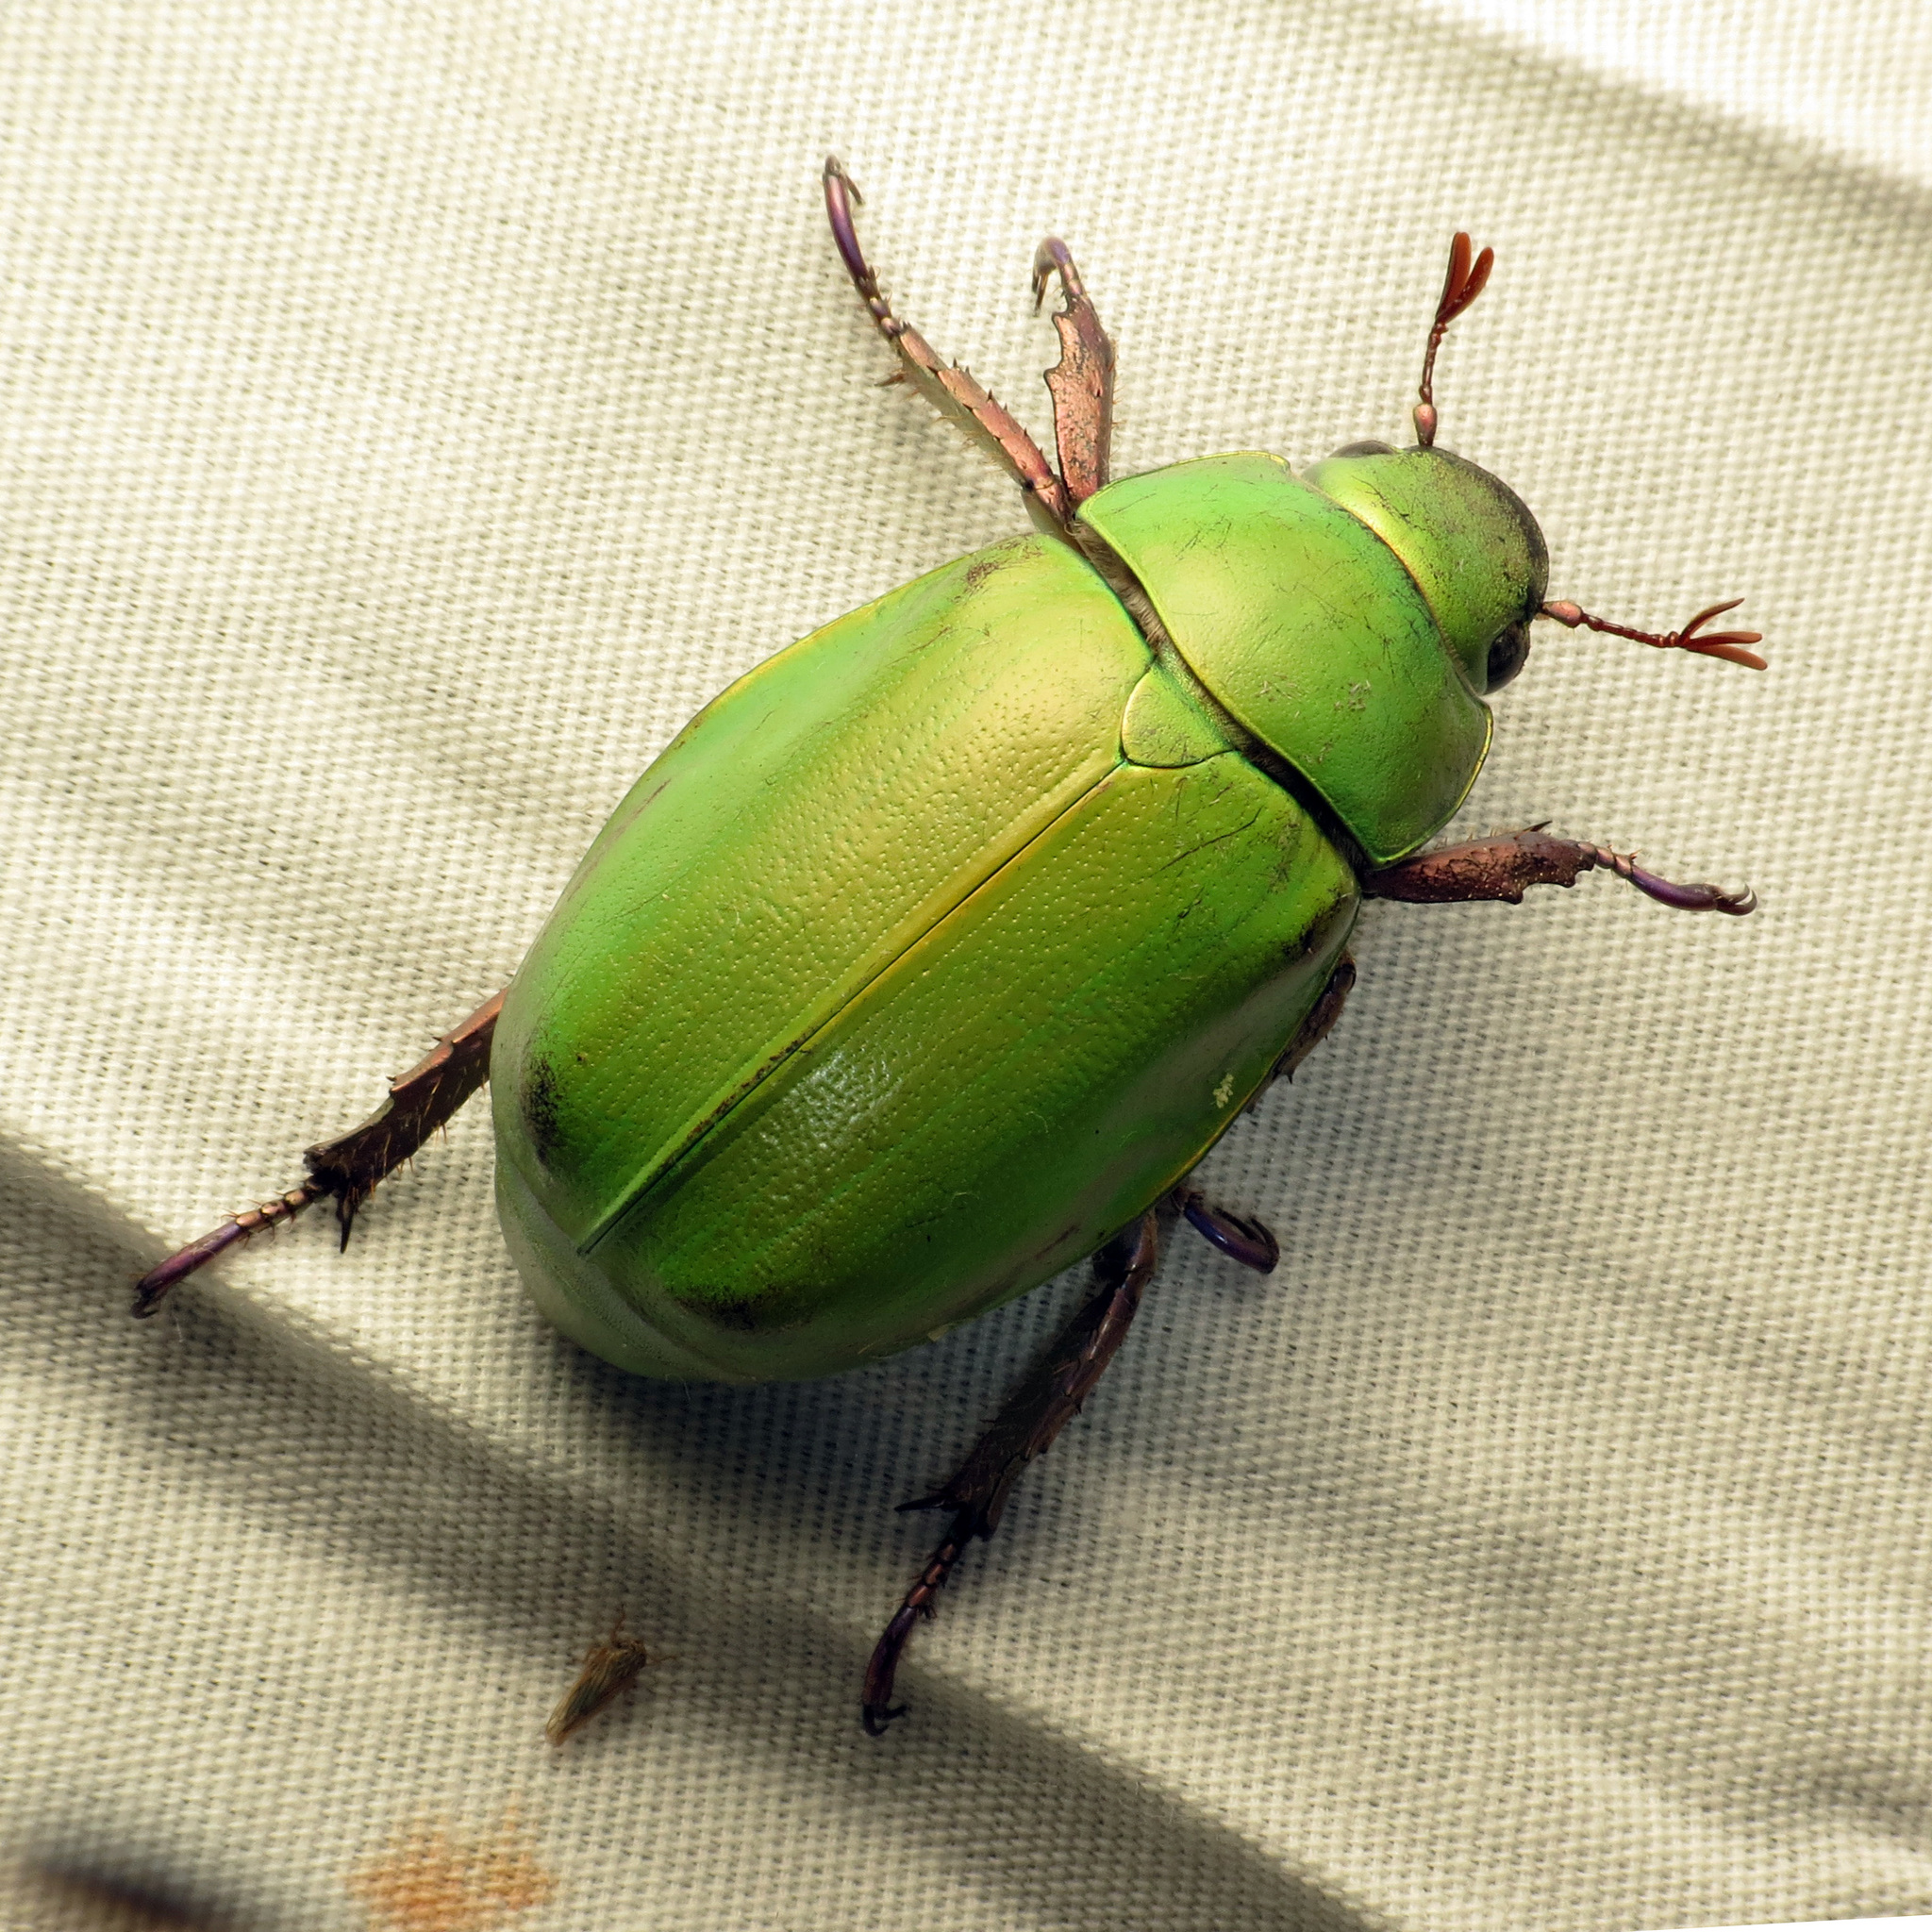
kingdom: Animalia
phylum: Arthropoda
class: Insecta
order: Coleoptera
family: Scarabaeidae
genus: Chrysina
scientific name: Chrysina beyeri
